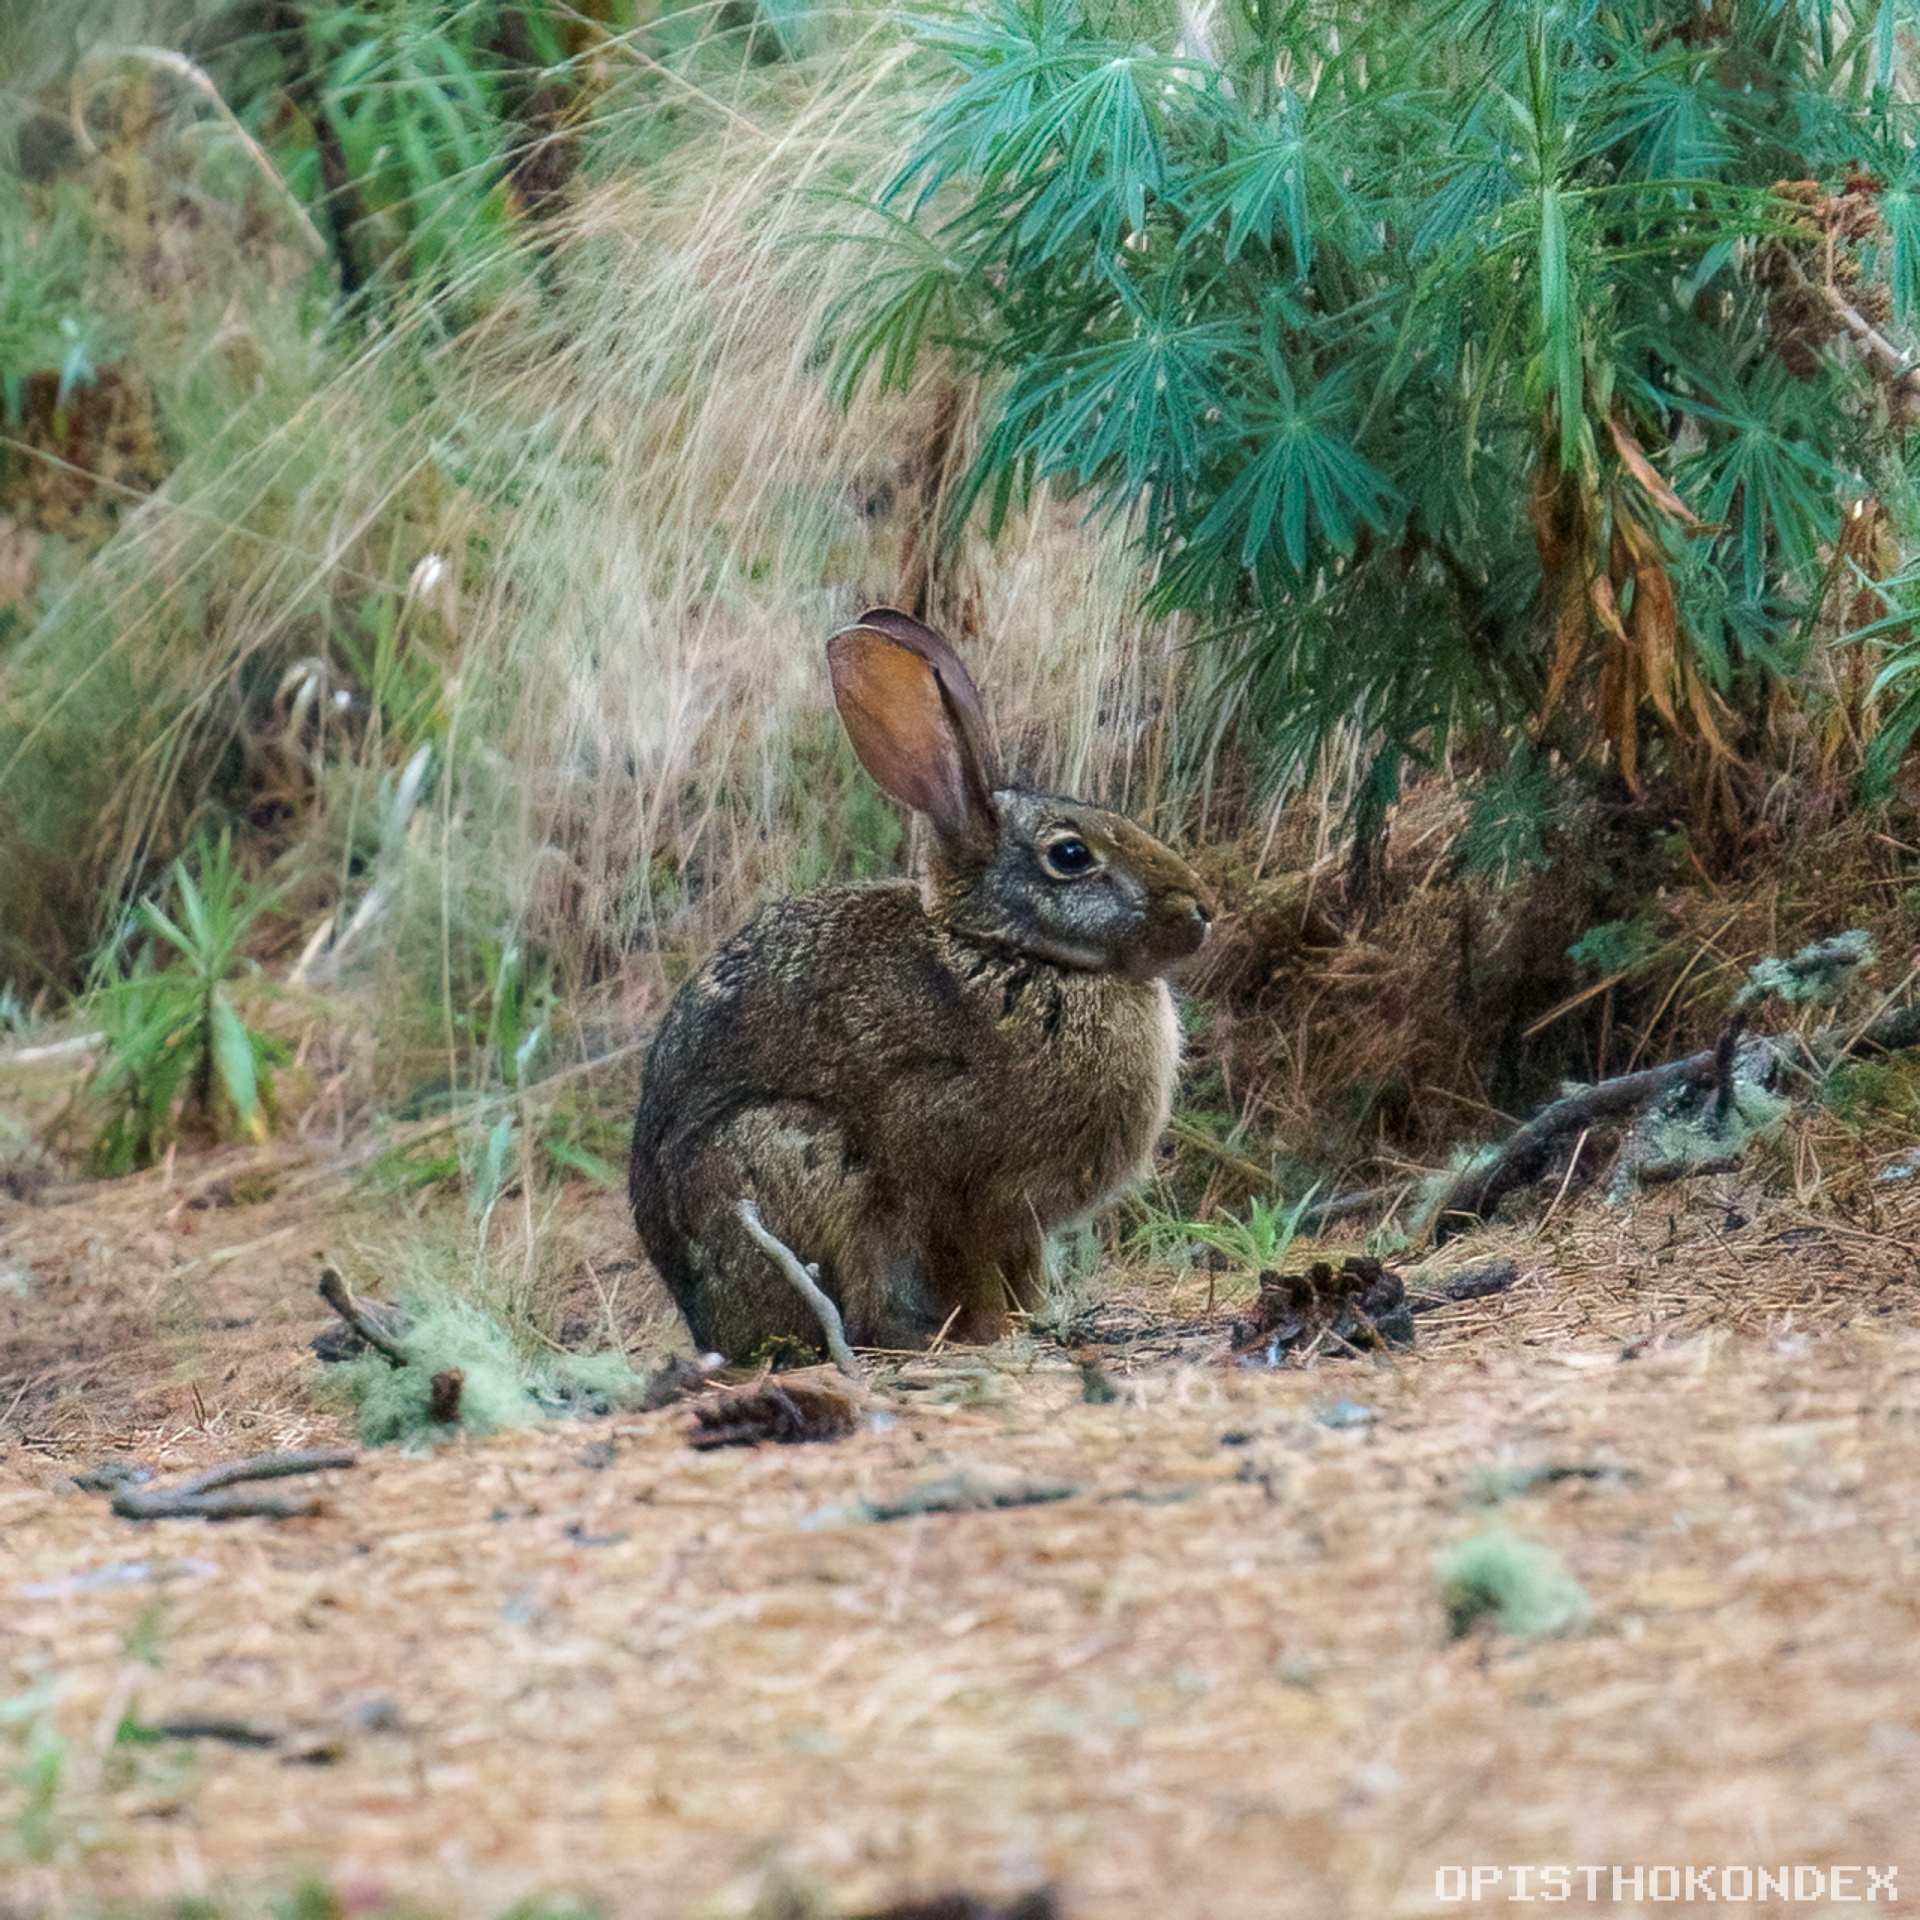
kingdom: Animalia
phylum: Chordata
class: Mammalia
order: Lagomorpha
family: Leporidae
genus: Sylvilagus
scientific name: Sylvilagus cunicularius
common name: Mexican cottontail
